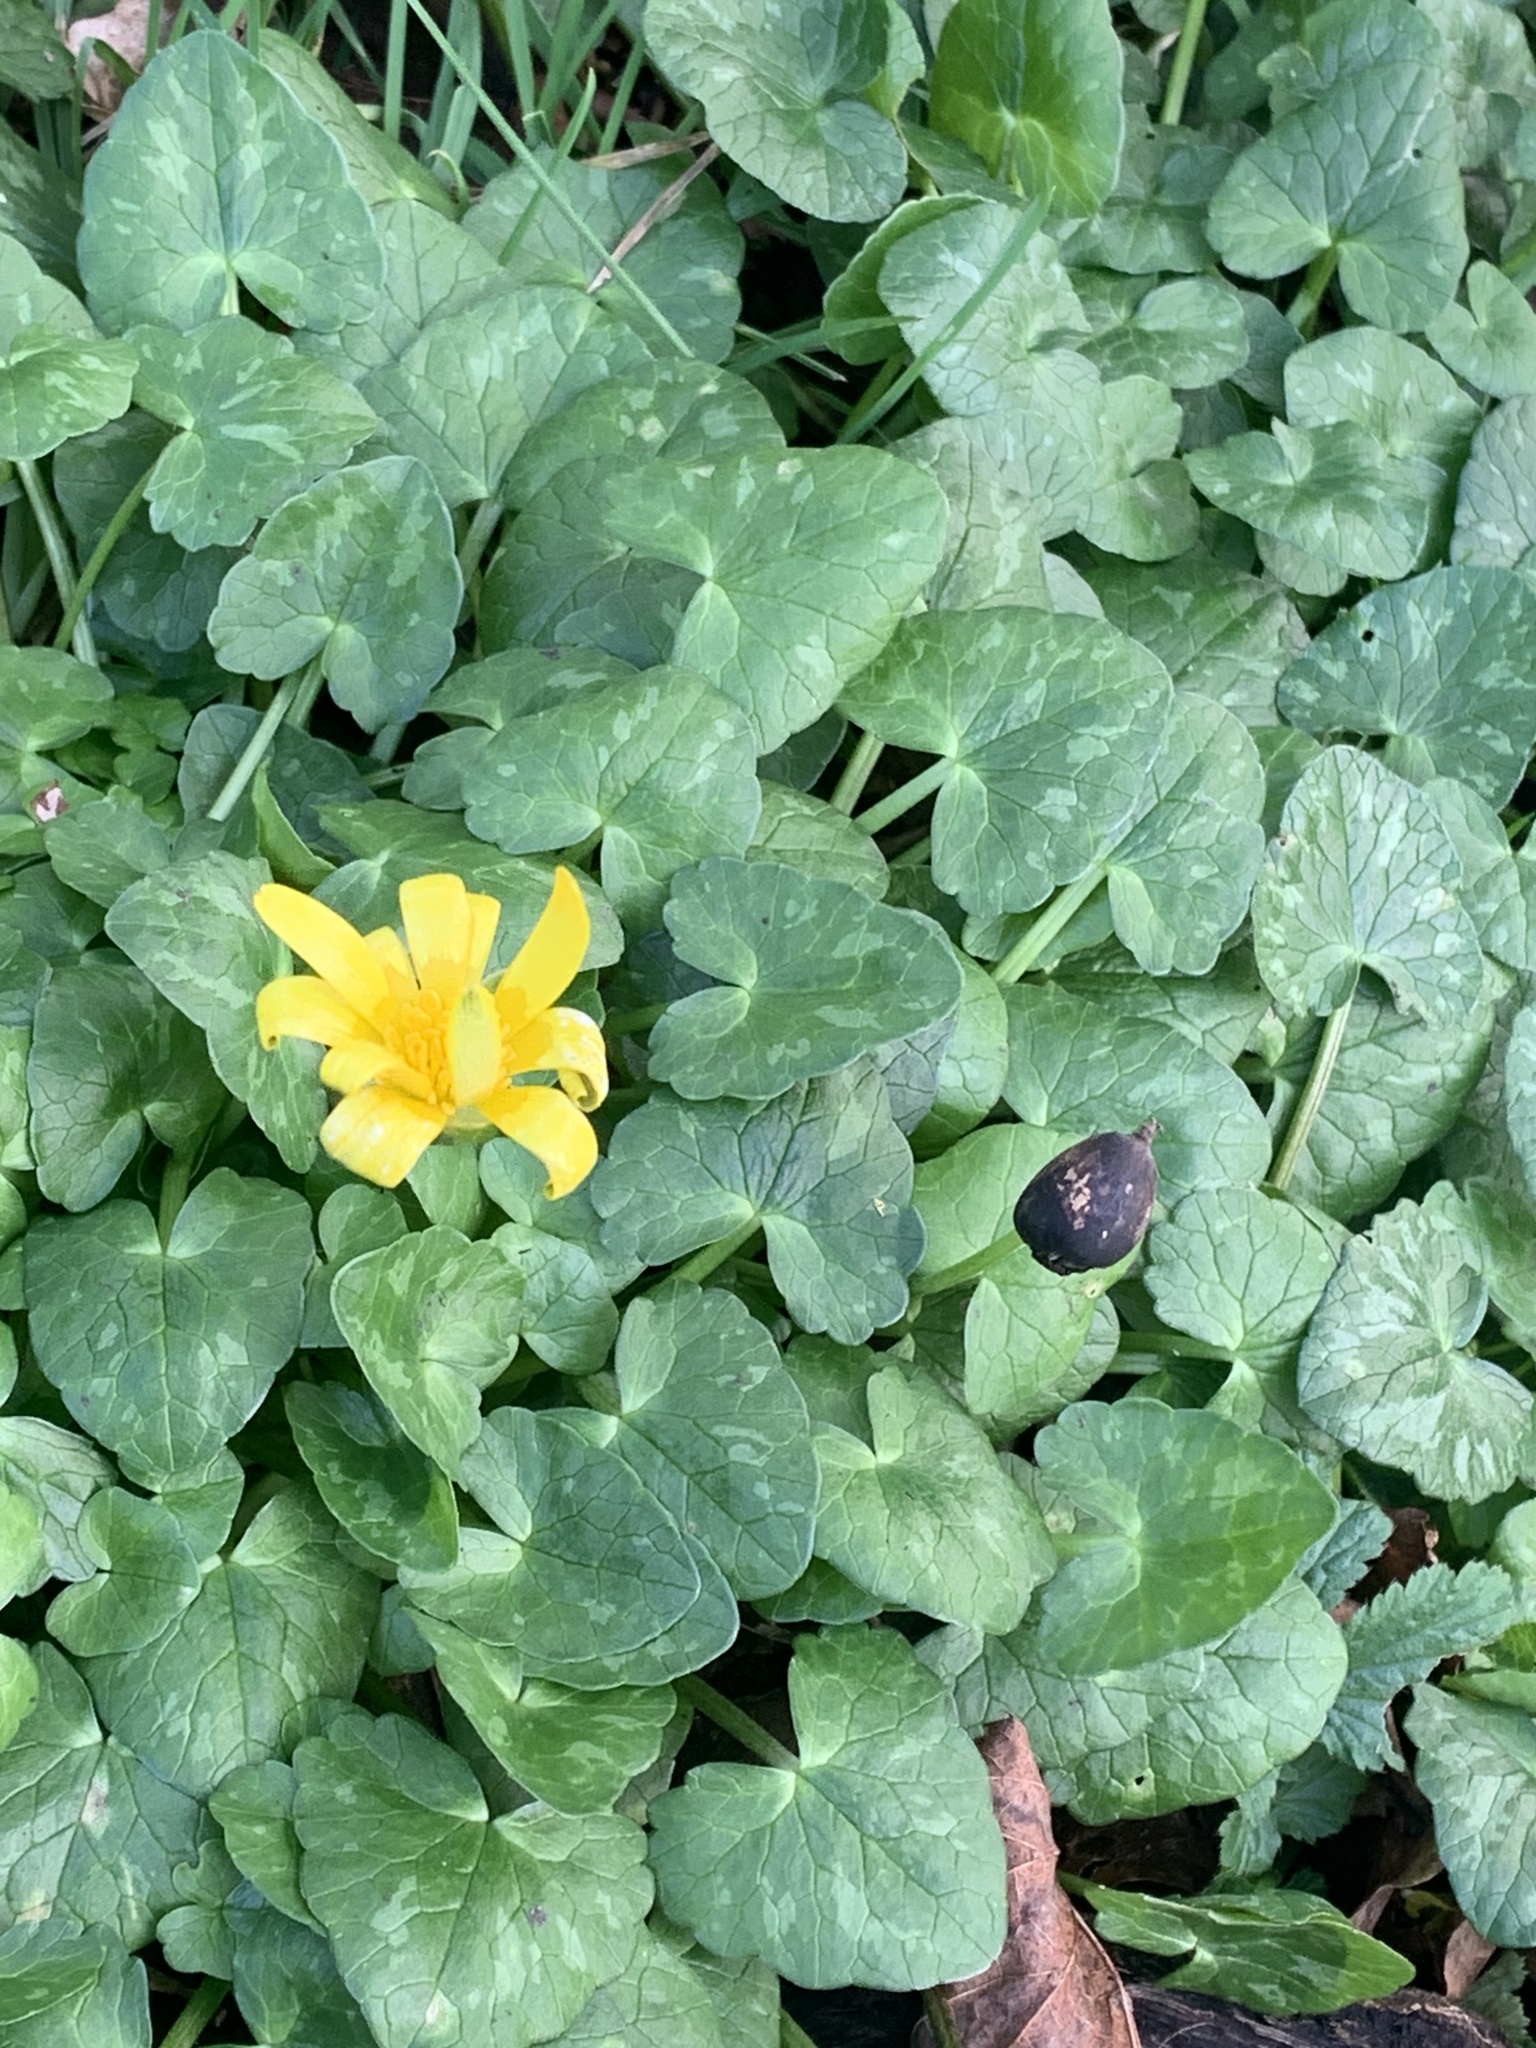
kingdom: Plantae
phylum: Tracheophyta
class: Magnoliopsida
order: Ranunculales
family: Ranunculaceae
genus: Ficaria
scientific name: Ficaria verna
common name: Lesser celandine
